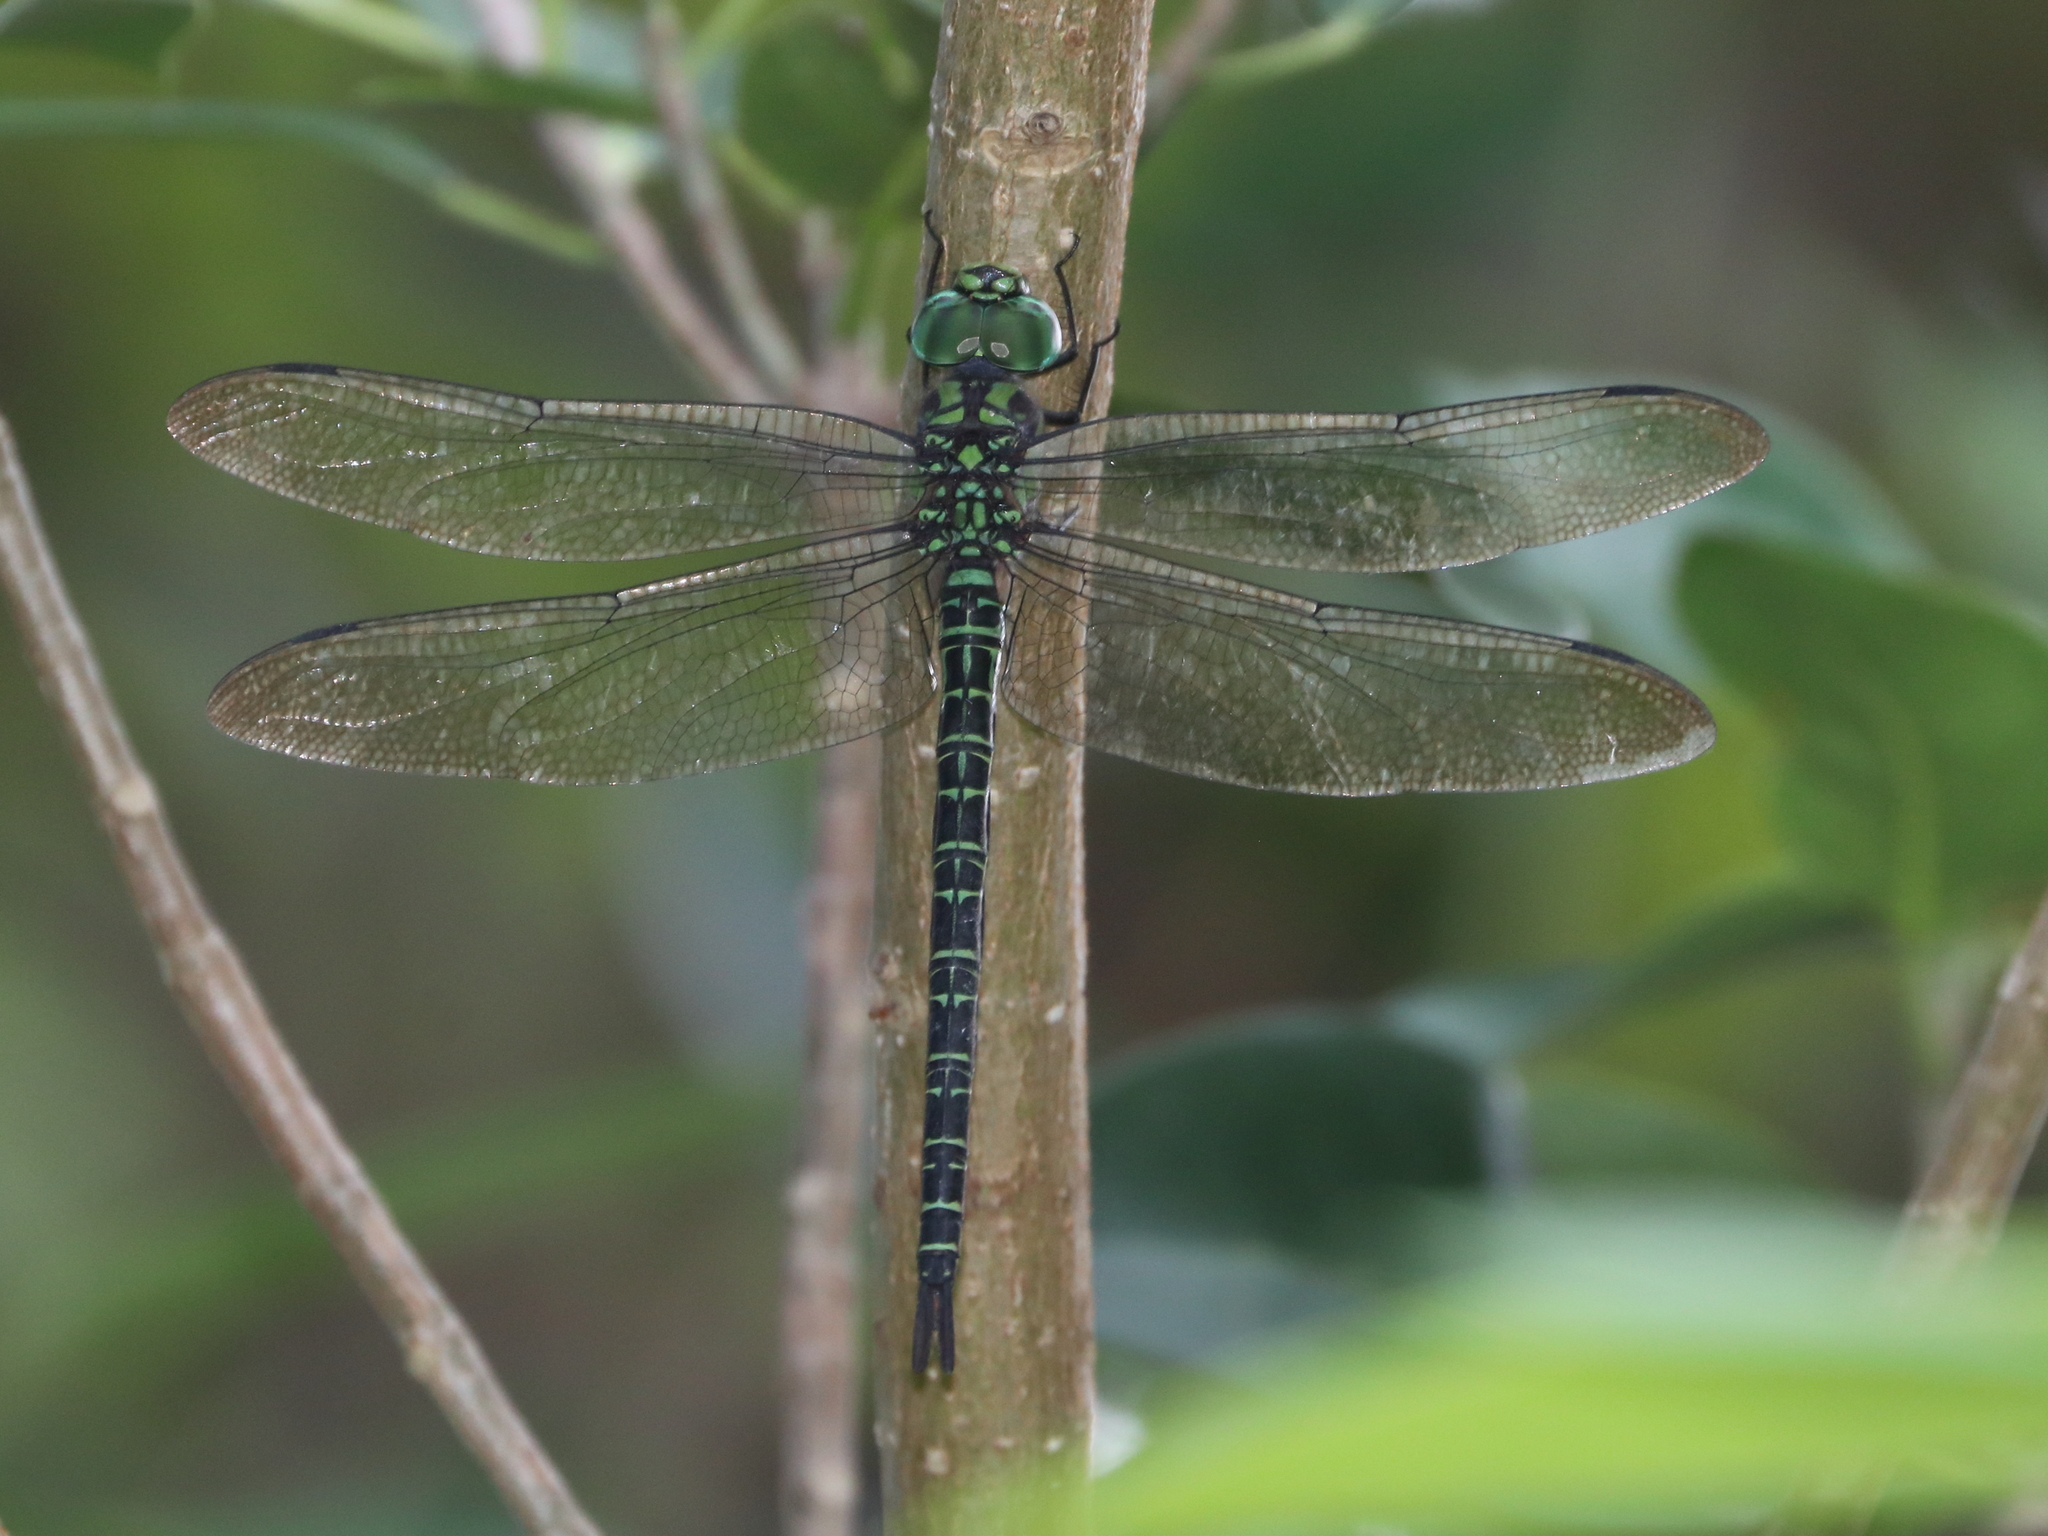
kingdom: Animalia
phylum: Arthropoda
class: Insecta
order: Odonata
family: Aeshnidae
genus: Coryphaeschna
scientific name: Coryphaeschna ingens
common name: Regal darner
